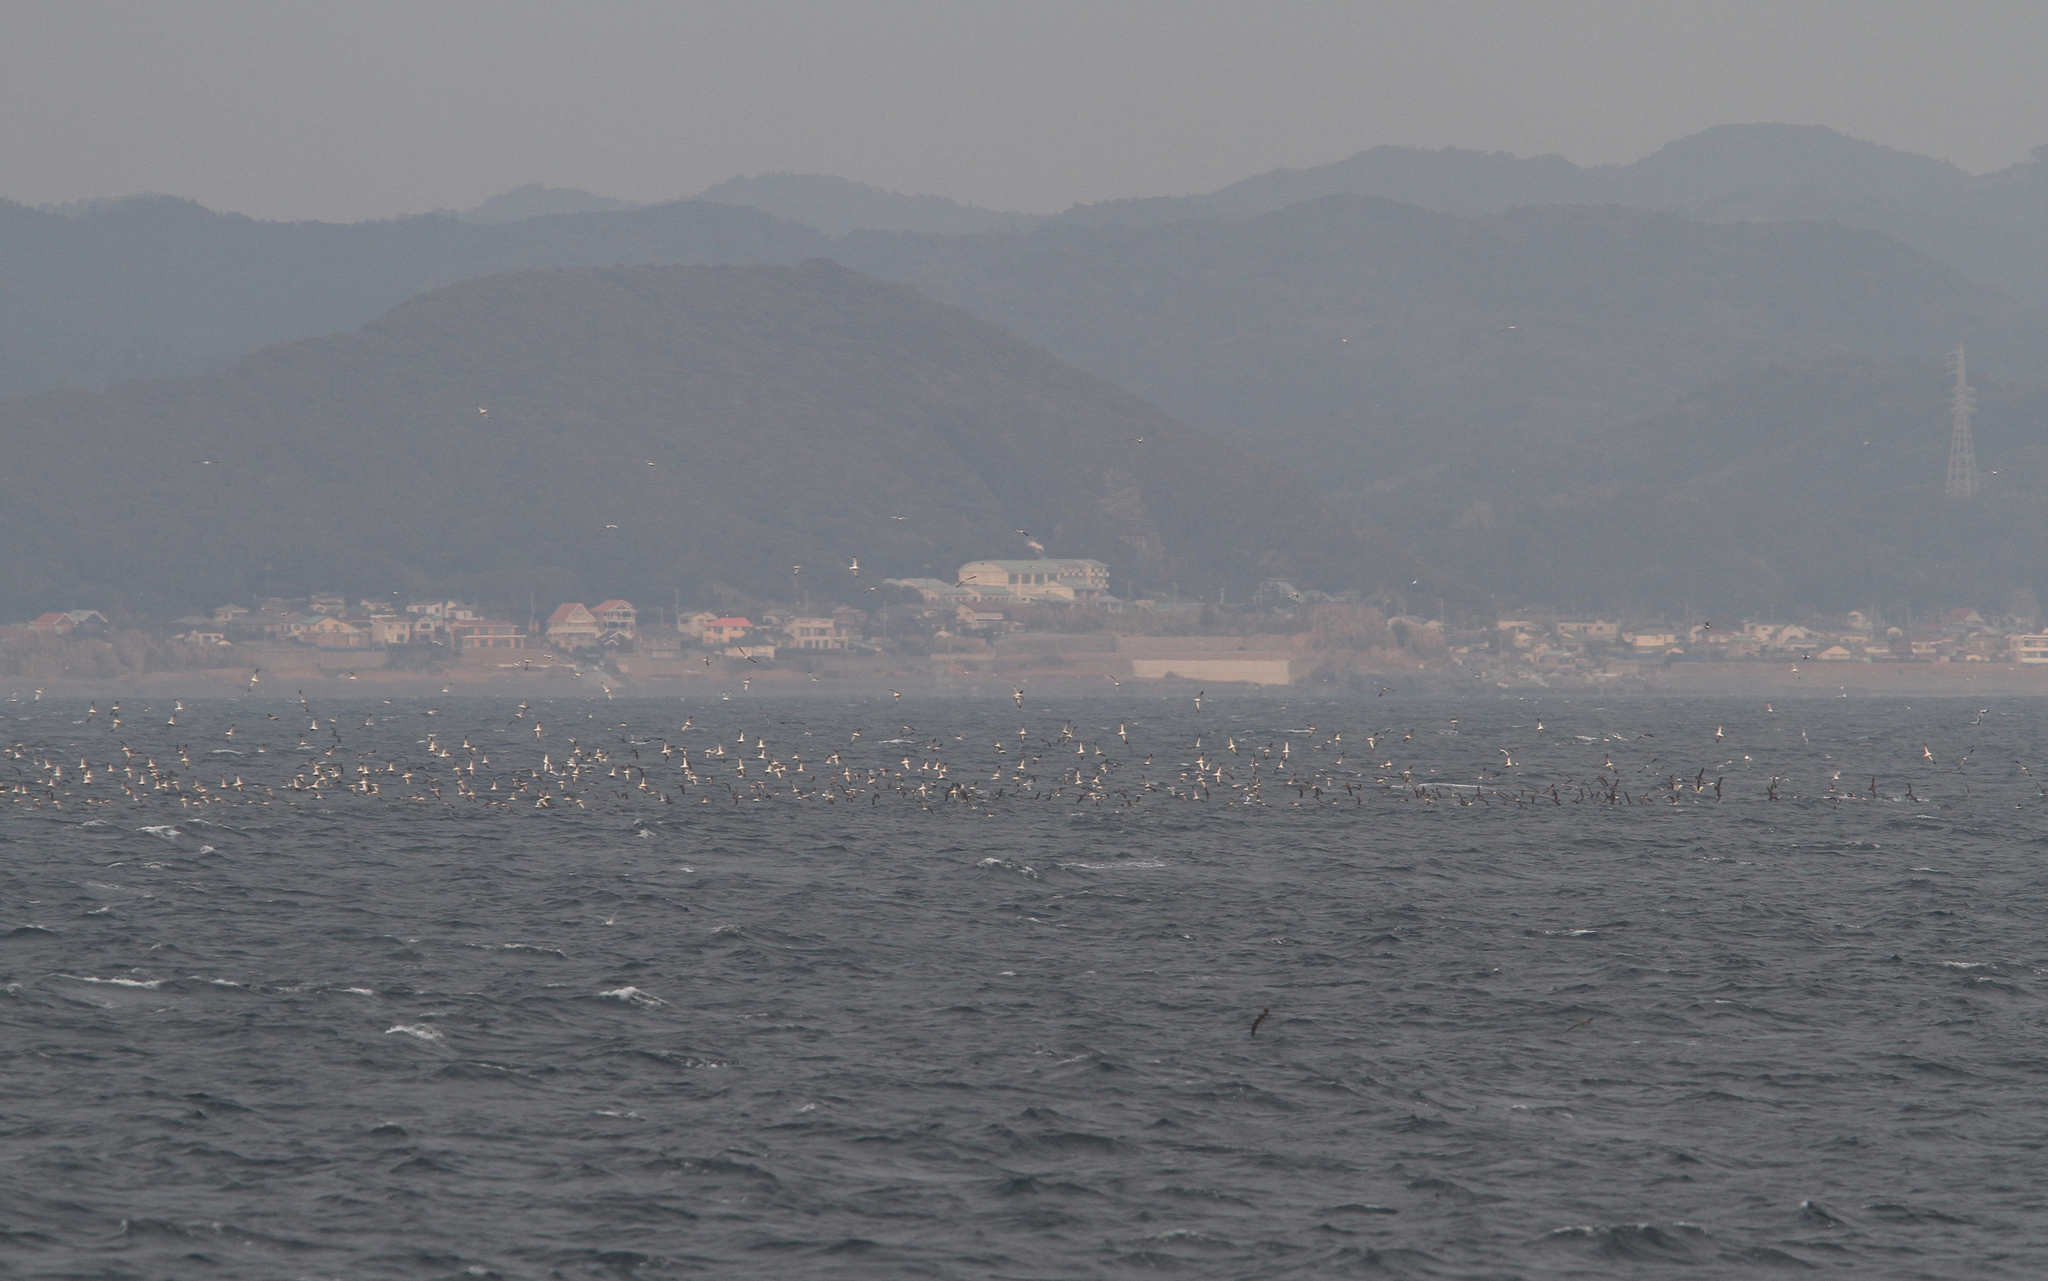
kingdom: Animalia
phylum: Chordata
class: Aves
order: Procellariiformes
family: Procellariidae
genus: Calonectris
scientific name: Calonectris leucomelas
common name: Streaked shearwater
